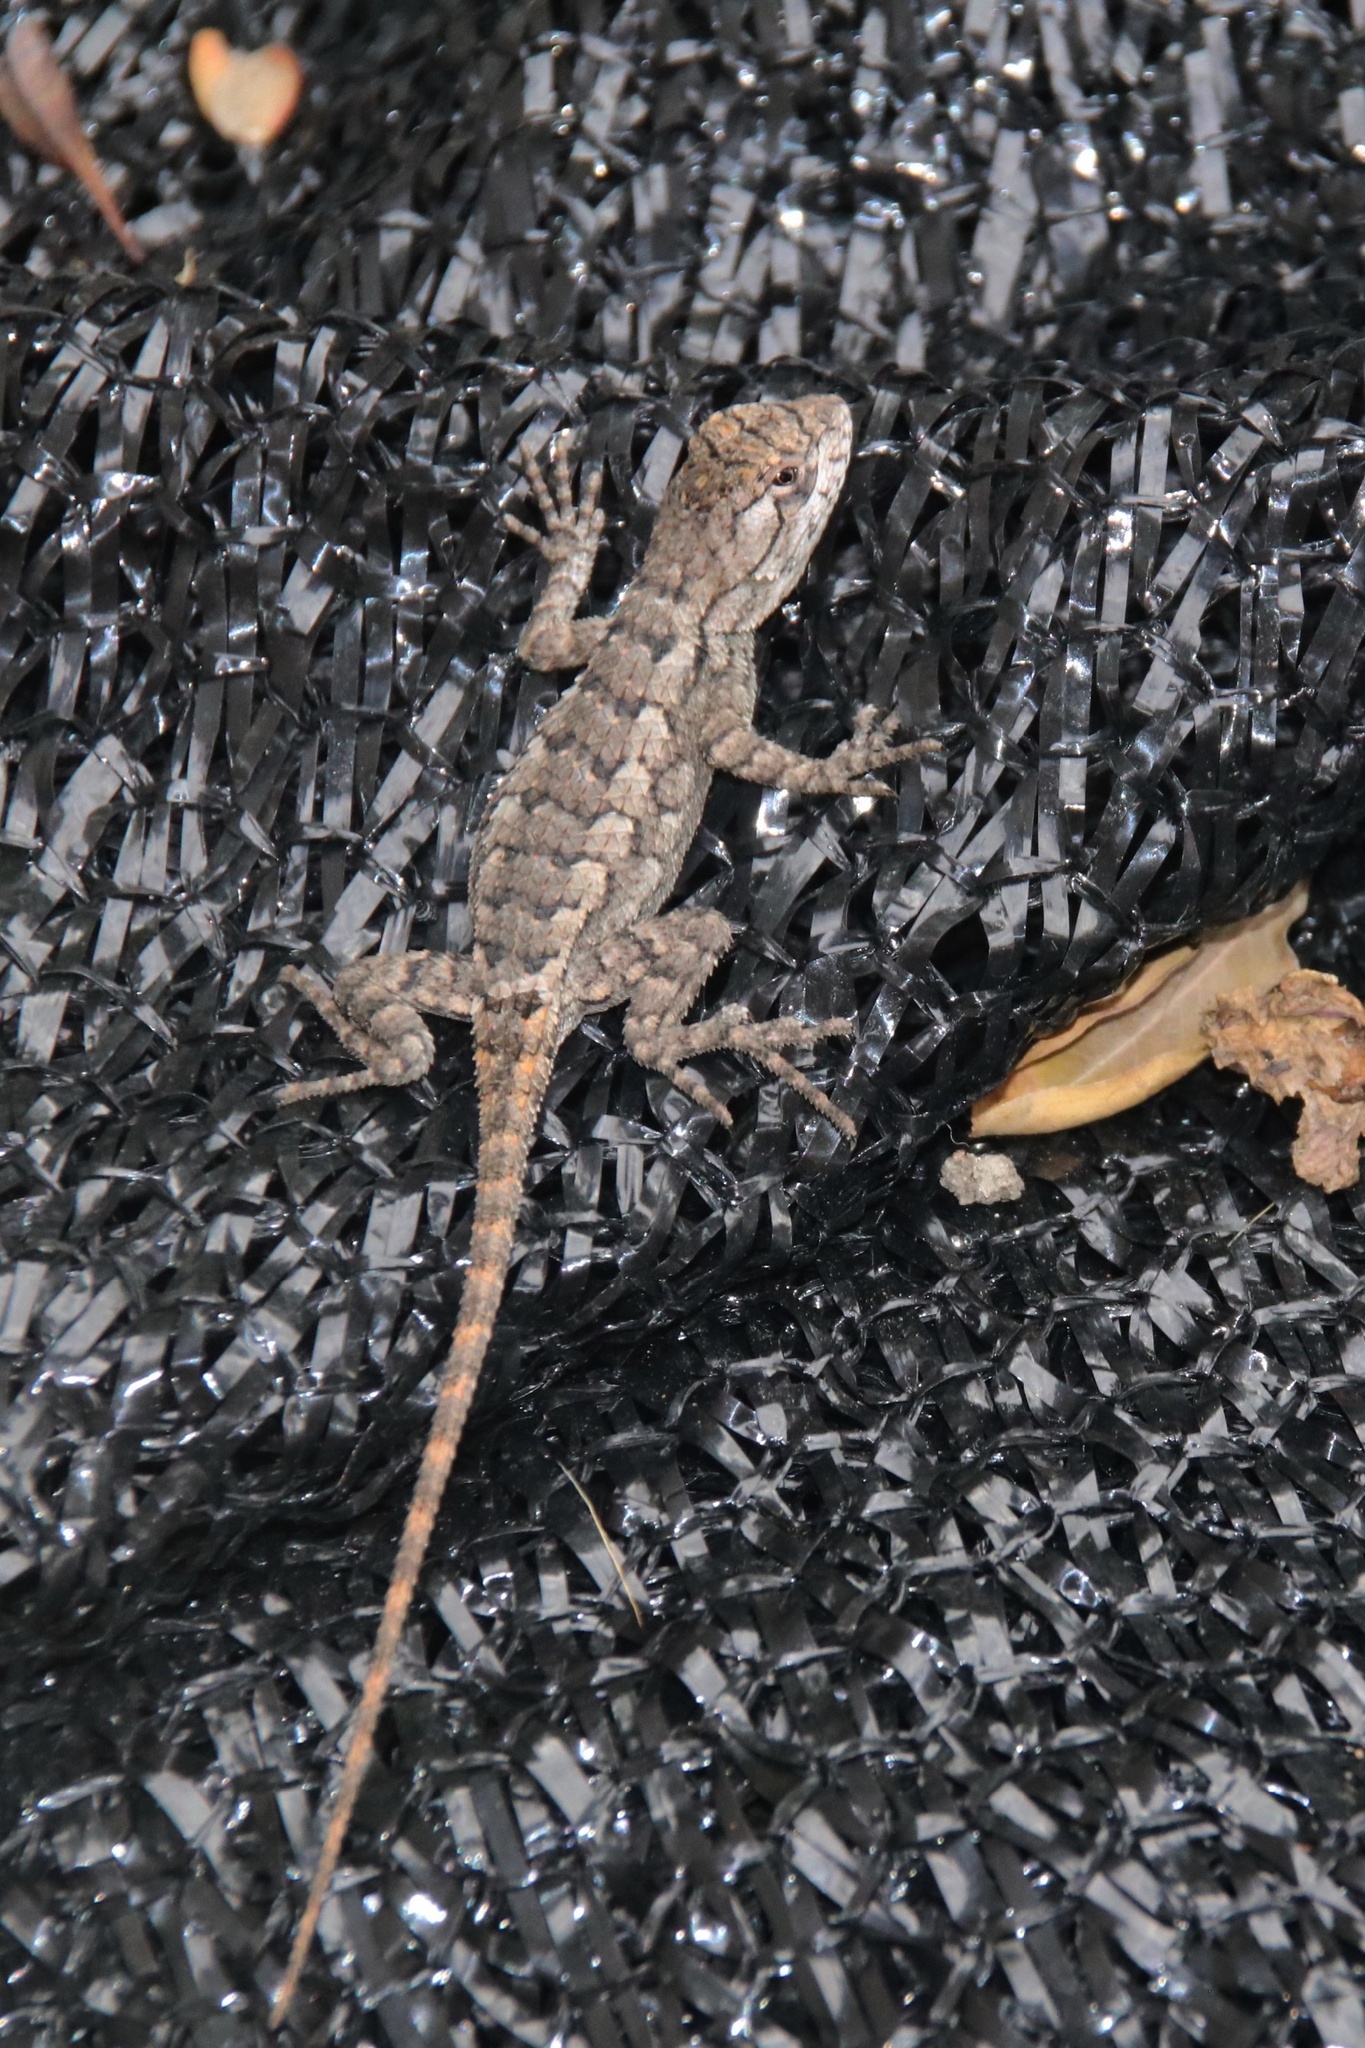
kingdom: Animalia
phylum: Chordata
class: Squamata
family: Phrynosomatidae
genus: Sceloporus
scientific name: Sceloporus olivaceus
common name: Texas spiny lizard
